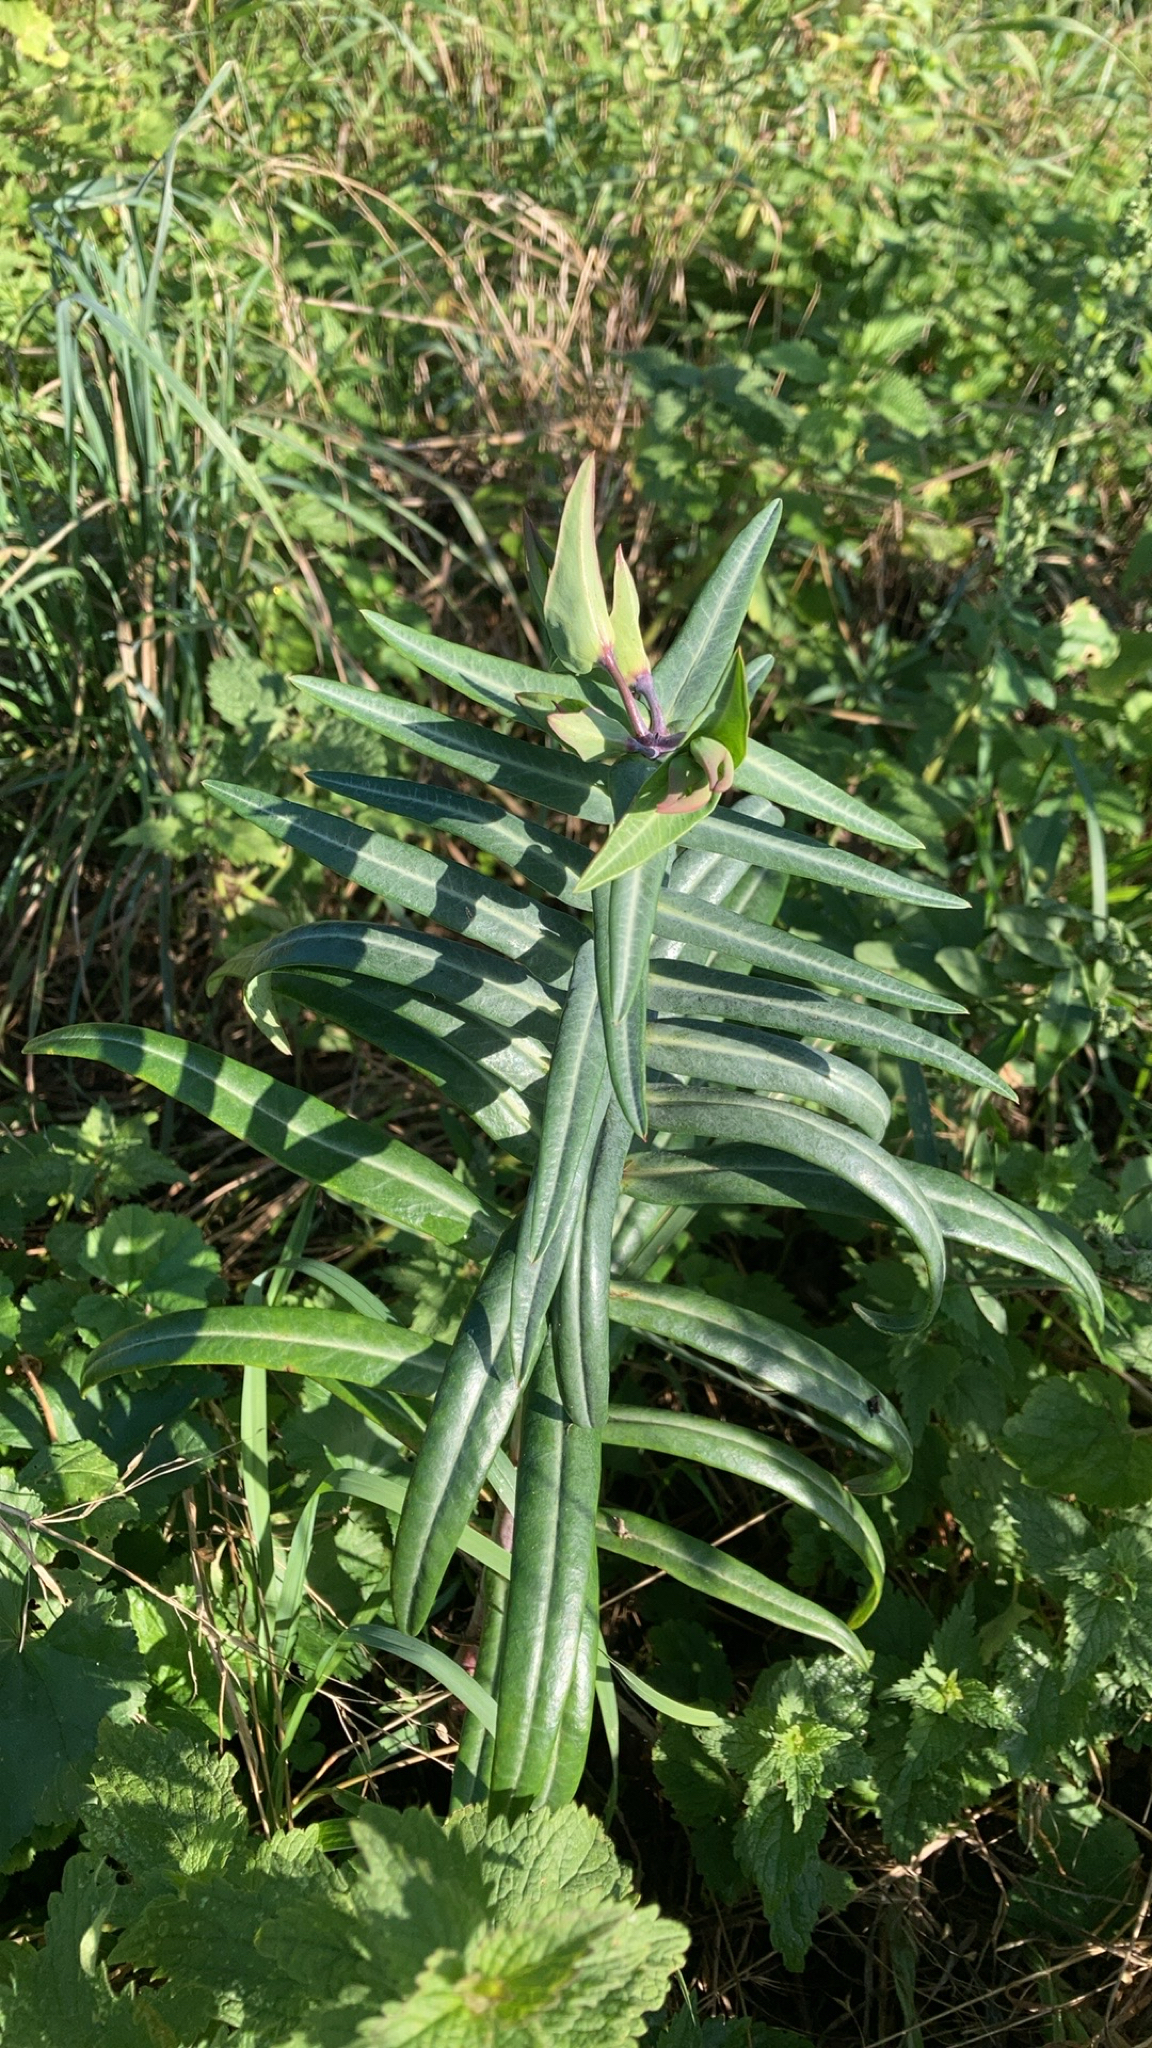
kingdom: Plantae
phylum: Tracheophyta
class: Magnoliopsida
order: Malpighiales
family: Euphorbiaceae
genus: Euphorbia
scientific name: Euphorbia lathyris
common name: Caper spurge
